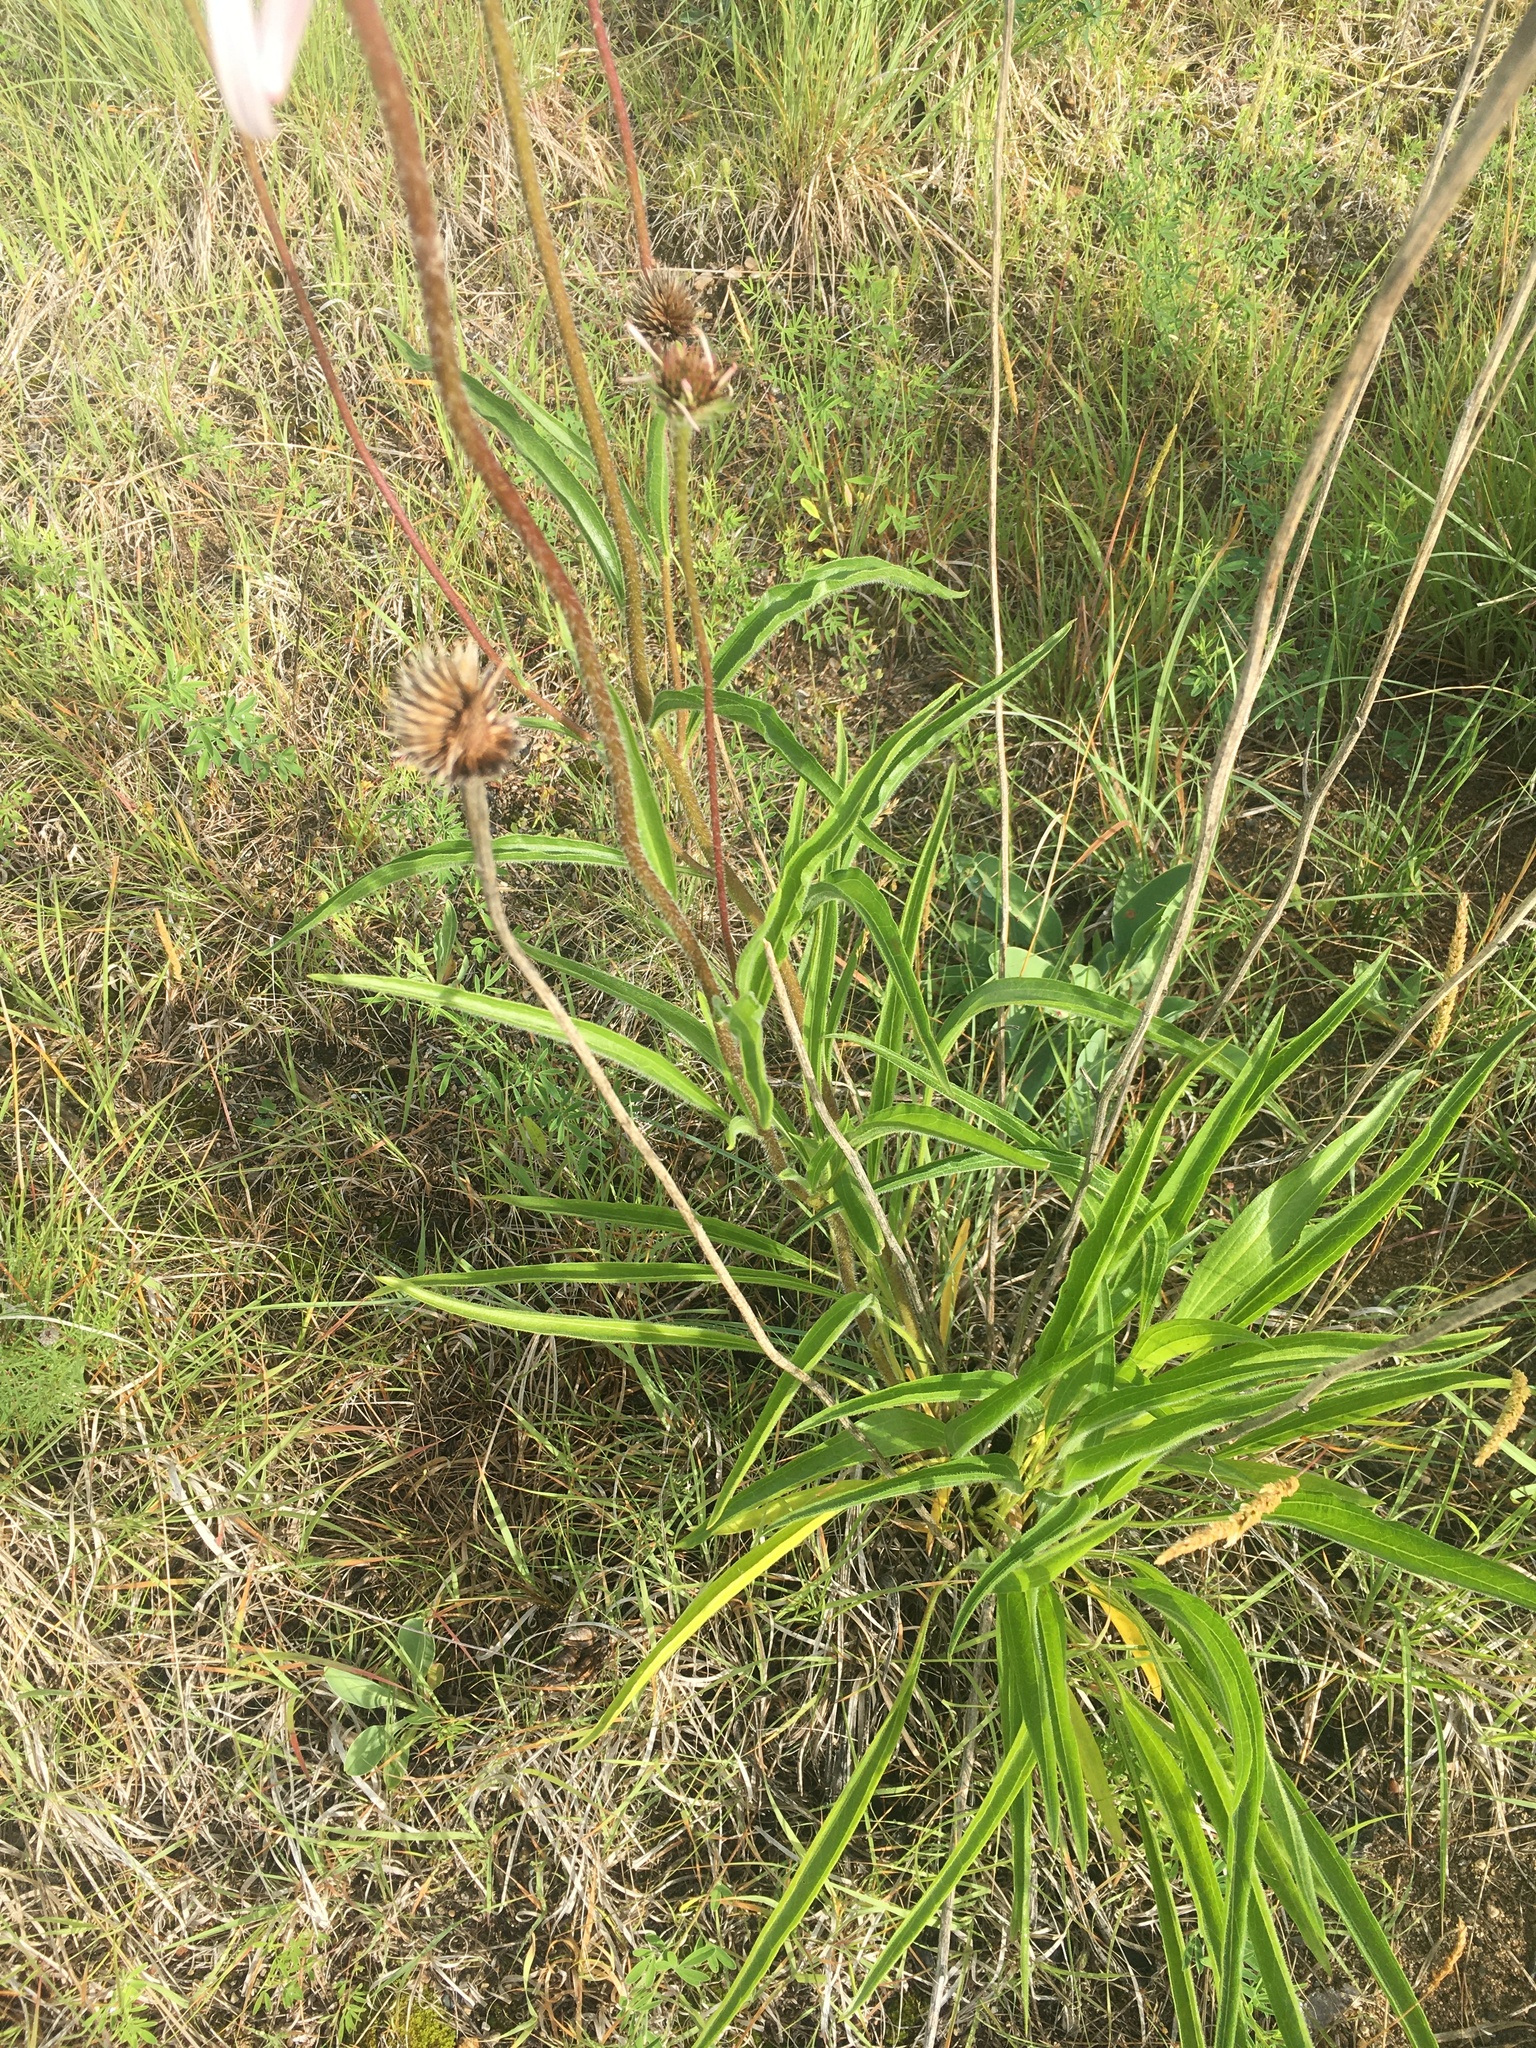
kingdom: Plantae
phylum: Tracheophyta
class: Magnoliopsida
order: Asterales
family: Asteraceae
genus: Echinacea
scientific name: Echinacea pallida
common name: Pale echinacea
